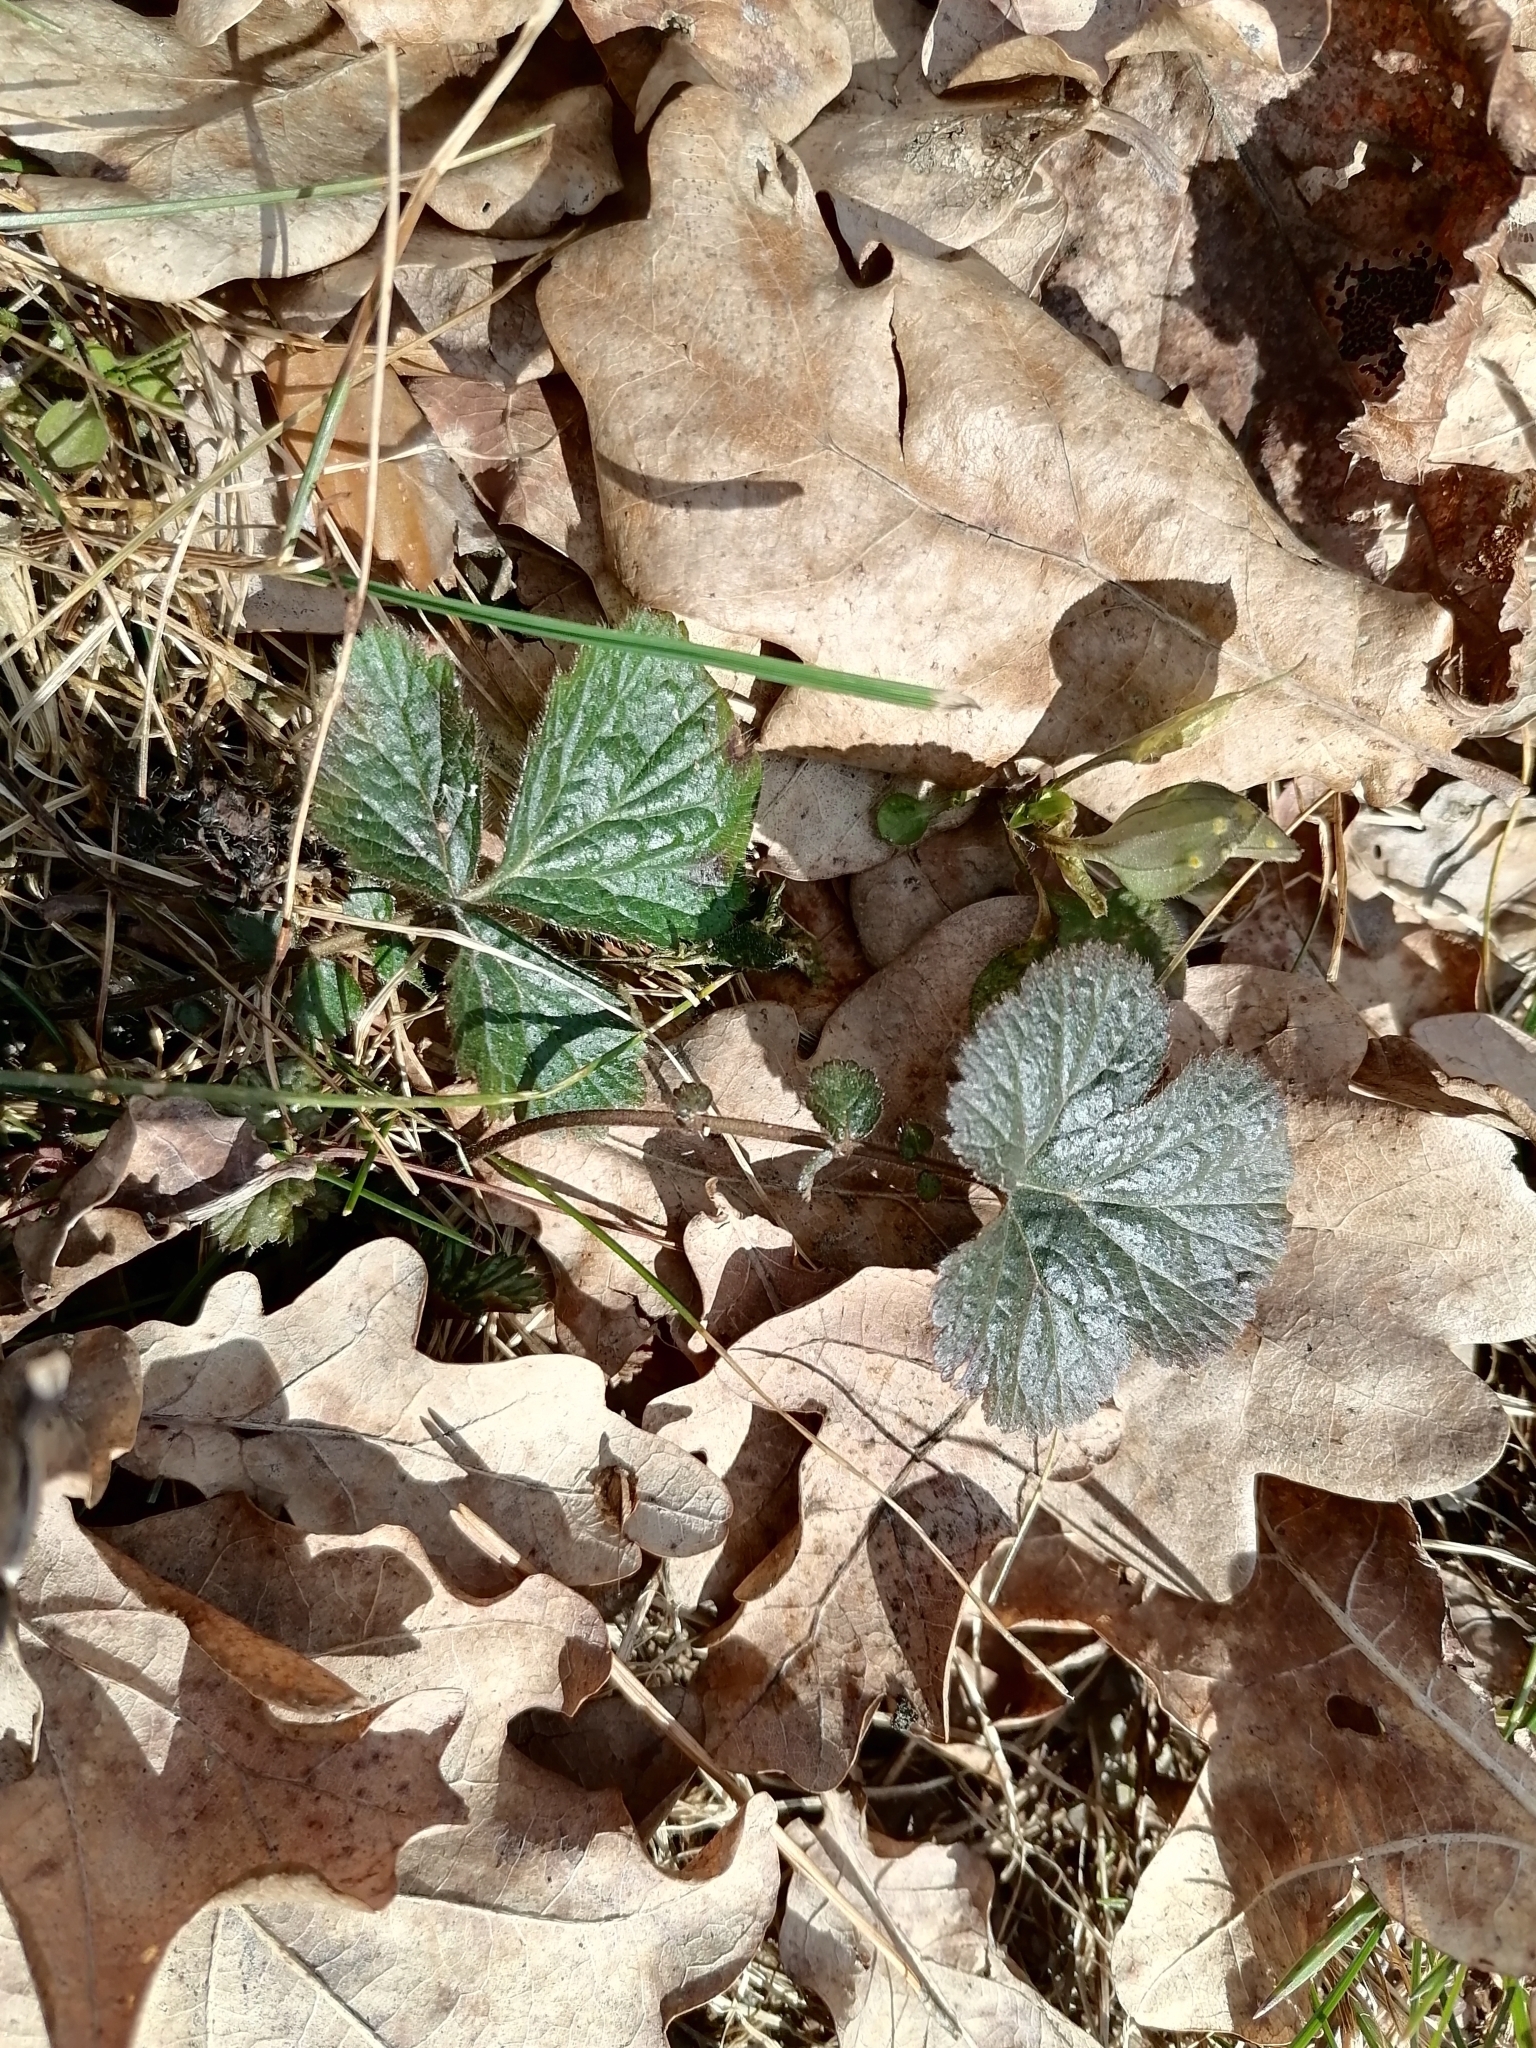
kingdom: Plantae
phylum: Tracheophyta
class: Magnoliopsida
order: Rosales
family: Rosaceae
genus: Geum
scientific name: Geum urbanum
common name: Wood avens
